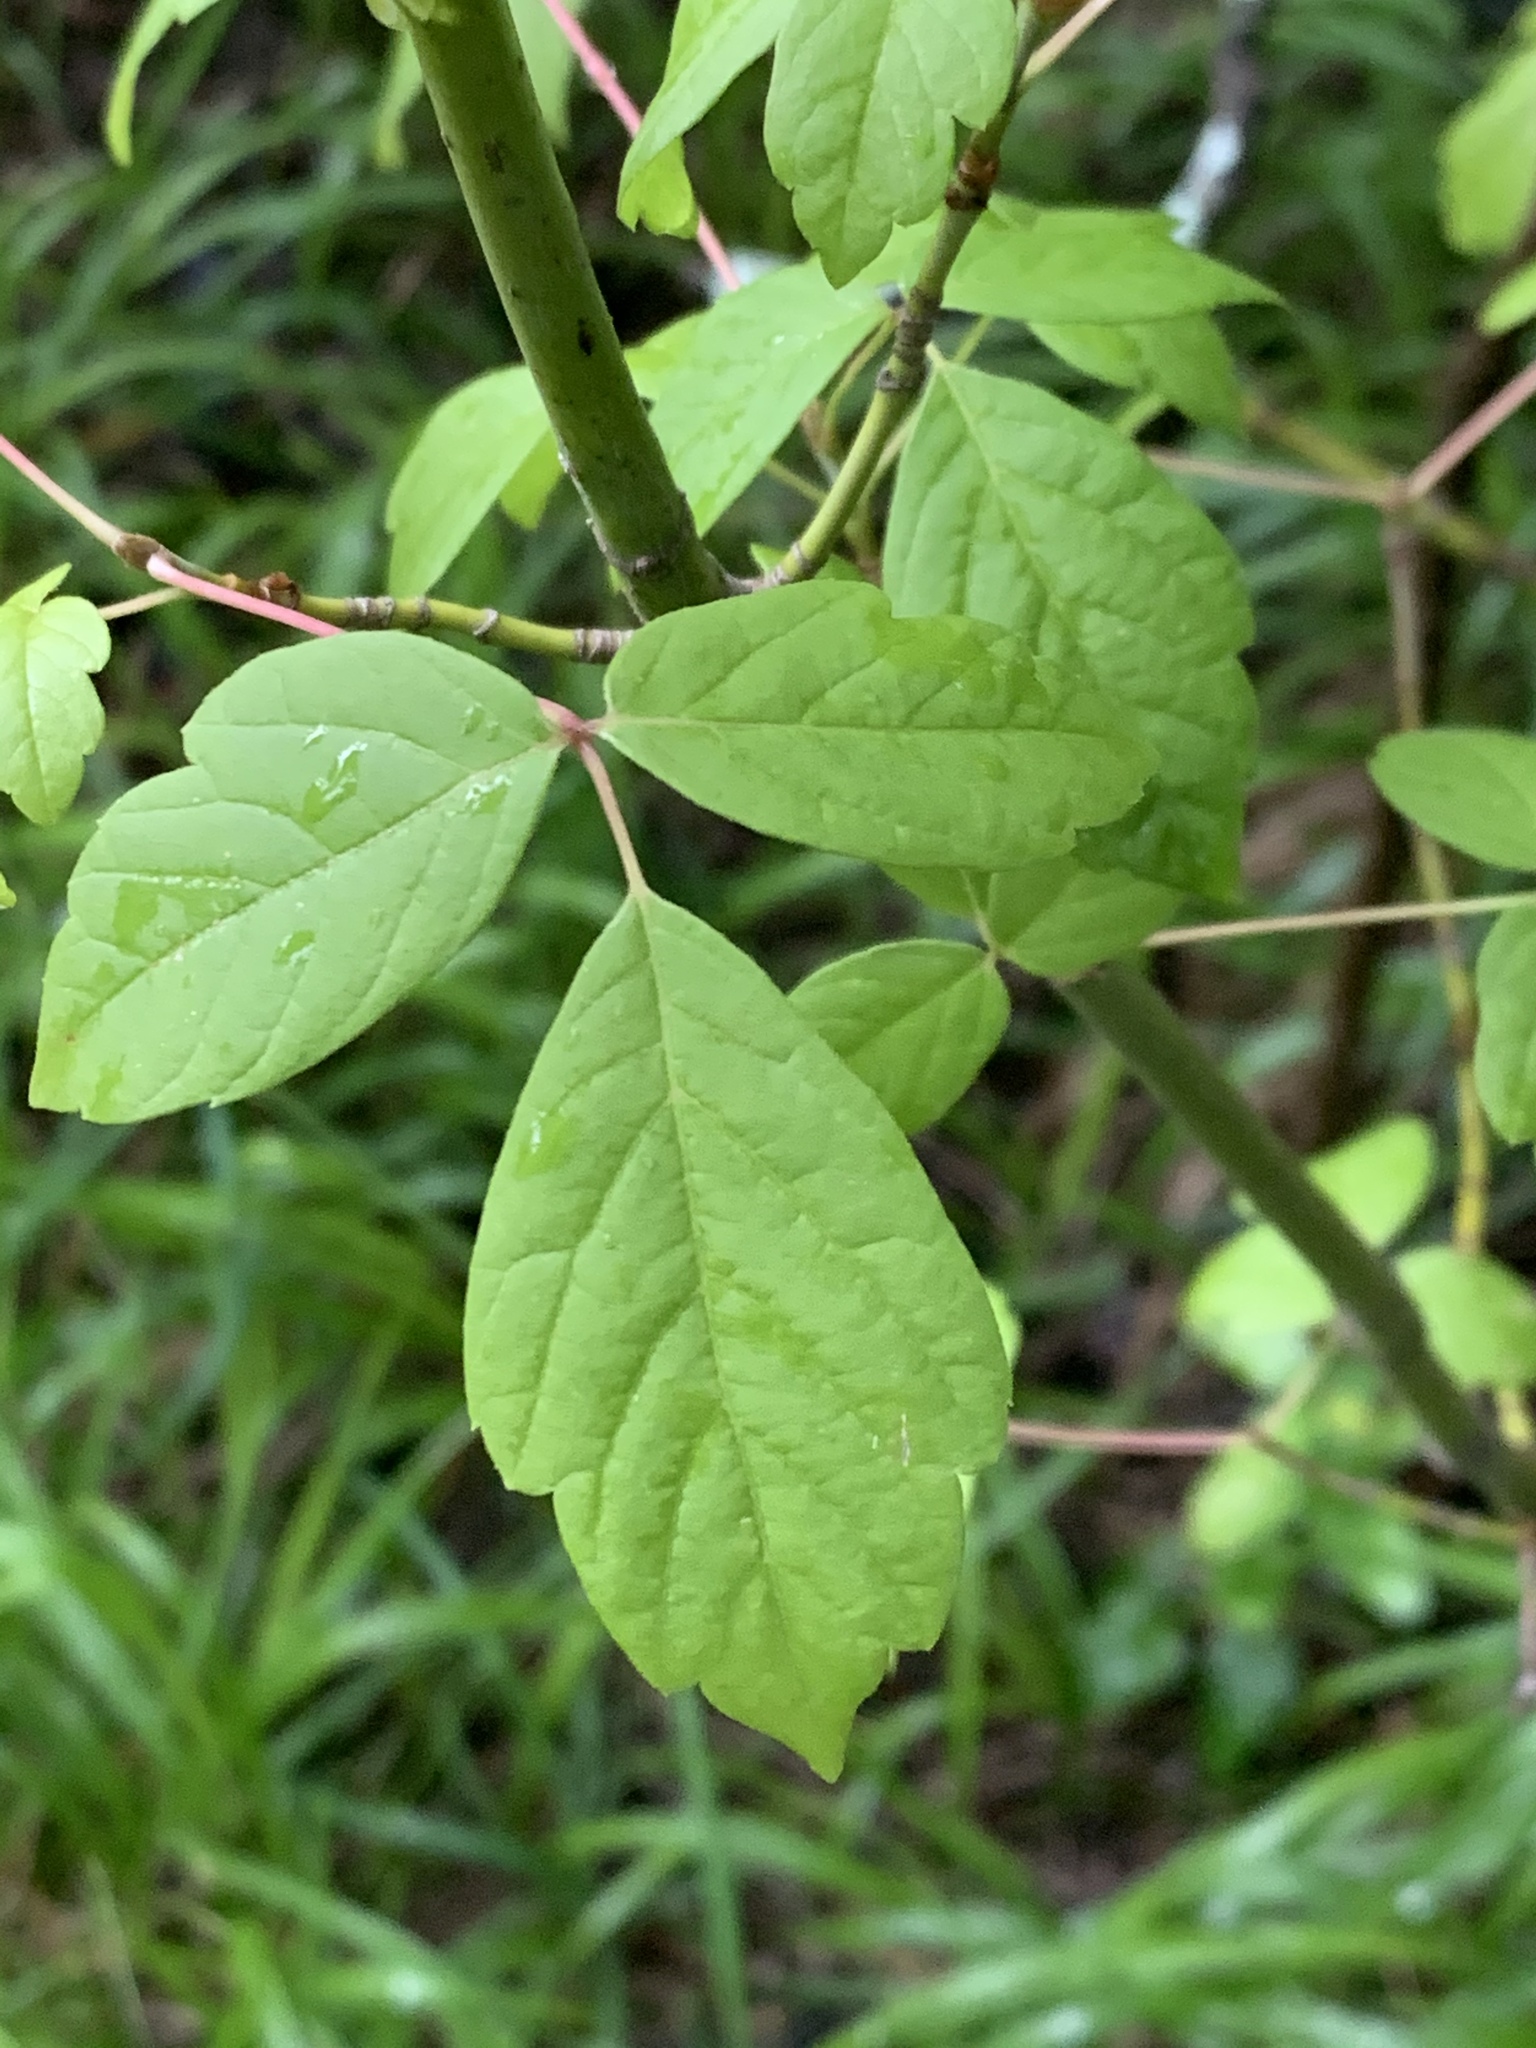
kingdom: Plantae
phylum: Tracheophyta
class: Magnoliopsida
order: Sapindales
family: Sapindaceae
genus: Acer
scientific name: Acer negundo
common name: Ashleaf maple
